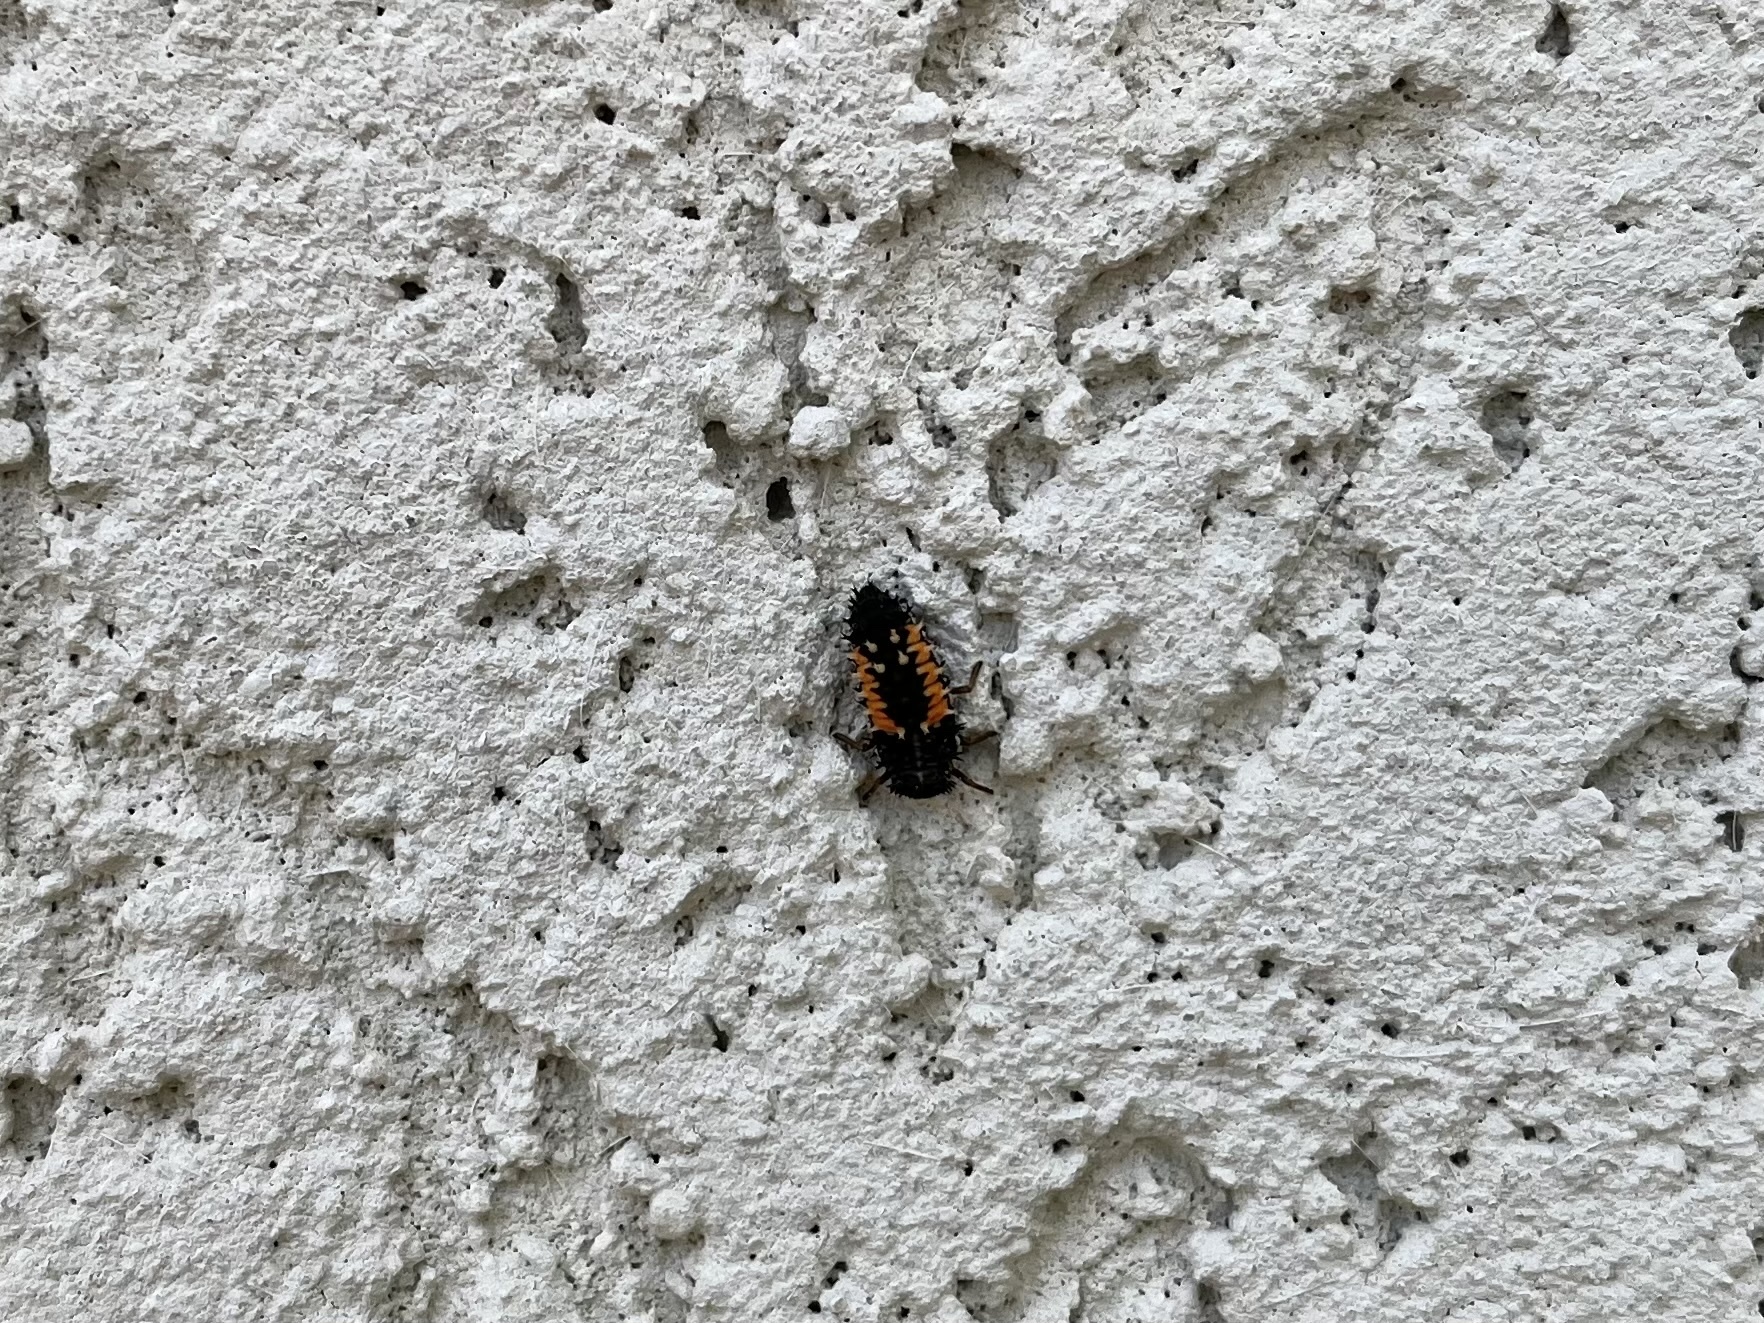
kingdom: Animalia
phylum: Arthropoda
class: Insecta
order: Coleoptera
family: Coccinellidae
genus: Harmonia
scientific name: Harmonia axyridis
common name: Harlequin ladybird
